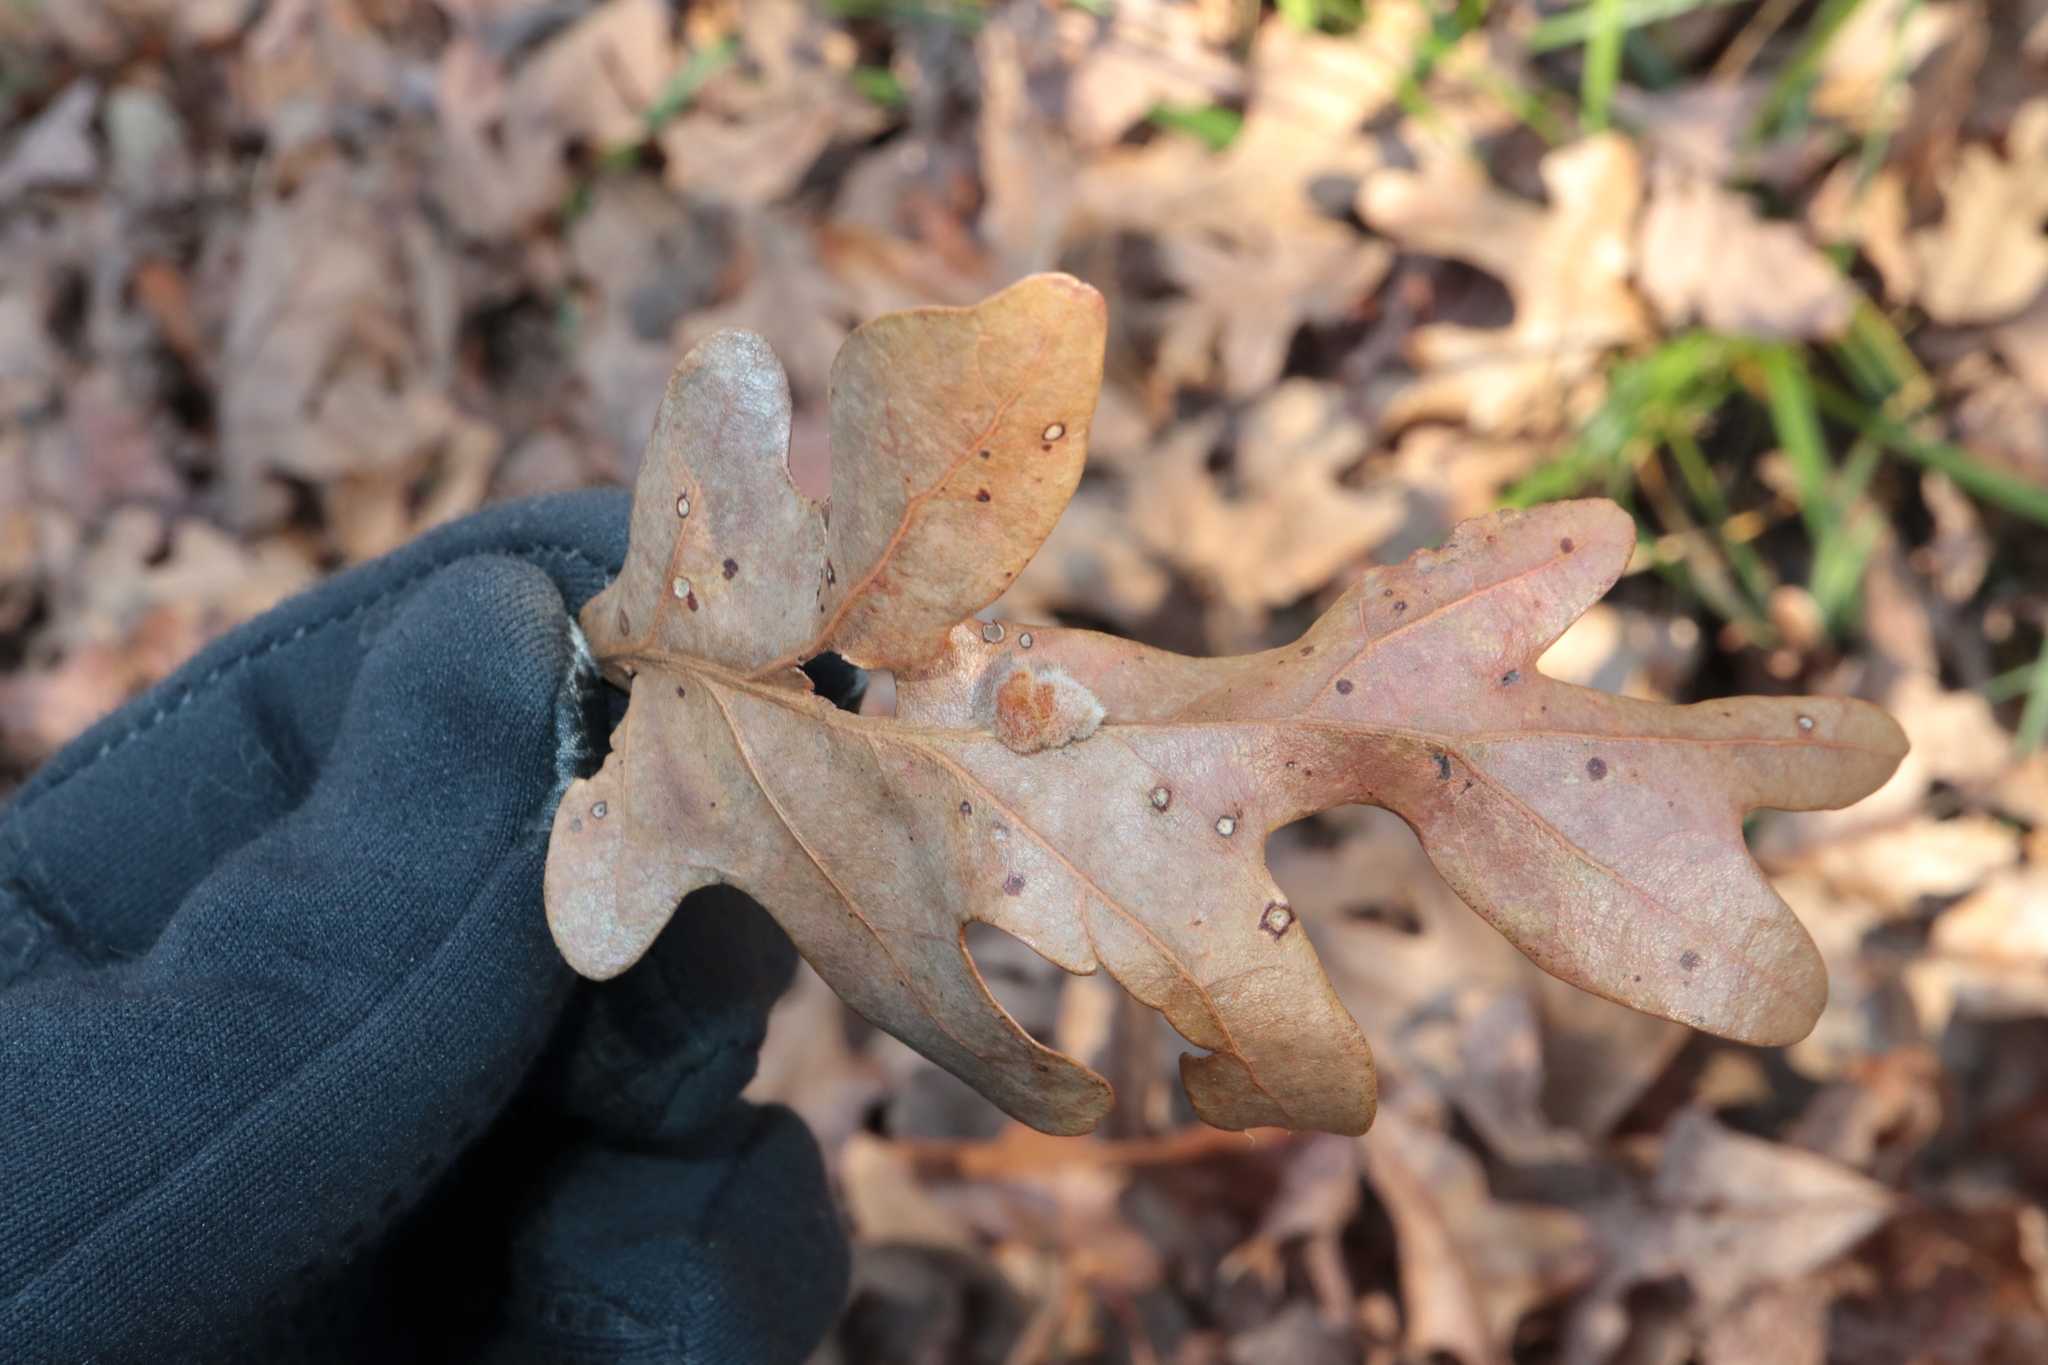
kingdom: Animalia
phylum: Arthropoda
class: Insecta
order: Hymenoptera
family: Cynipidae
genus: Andricus
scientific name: Andricus quercusflocci
